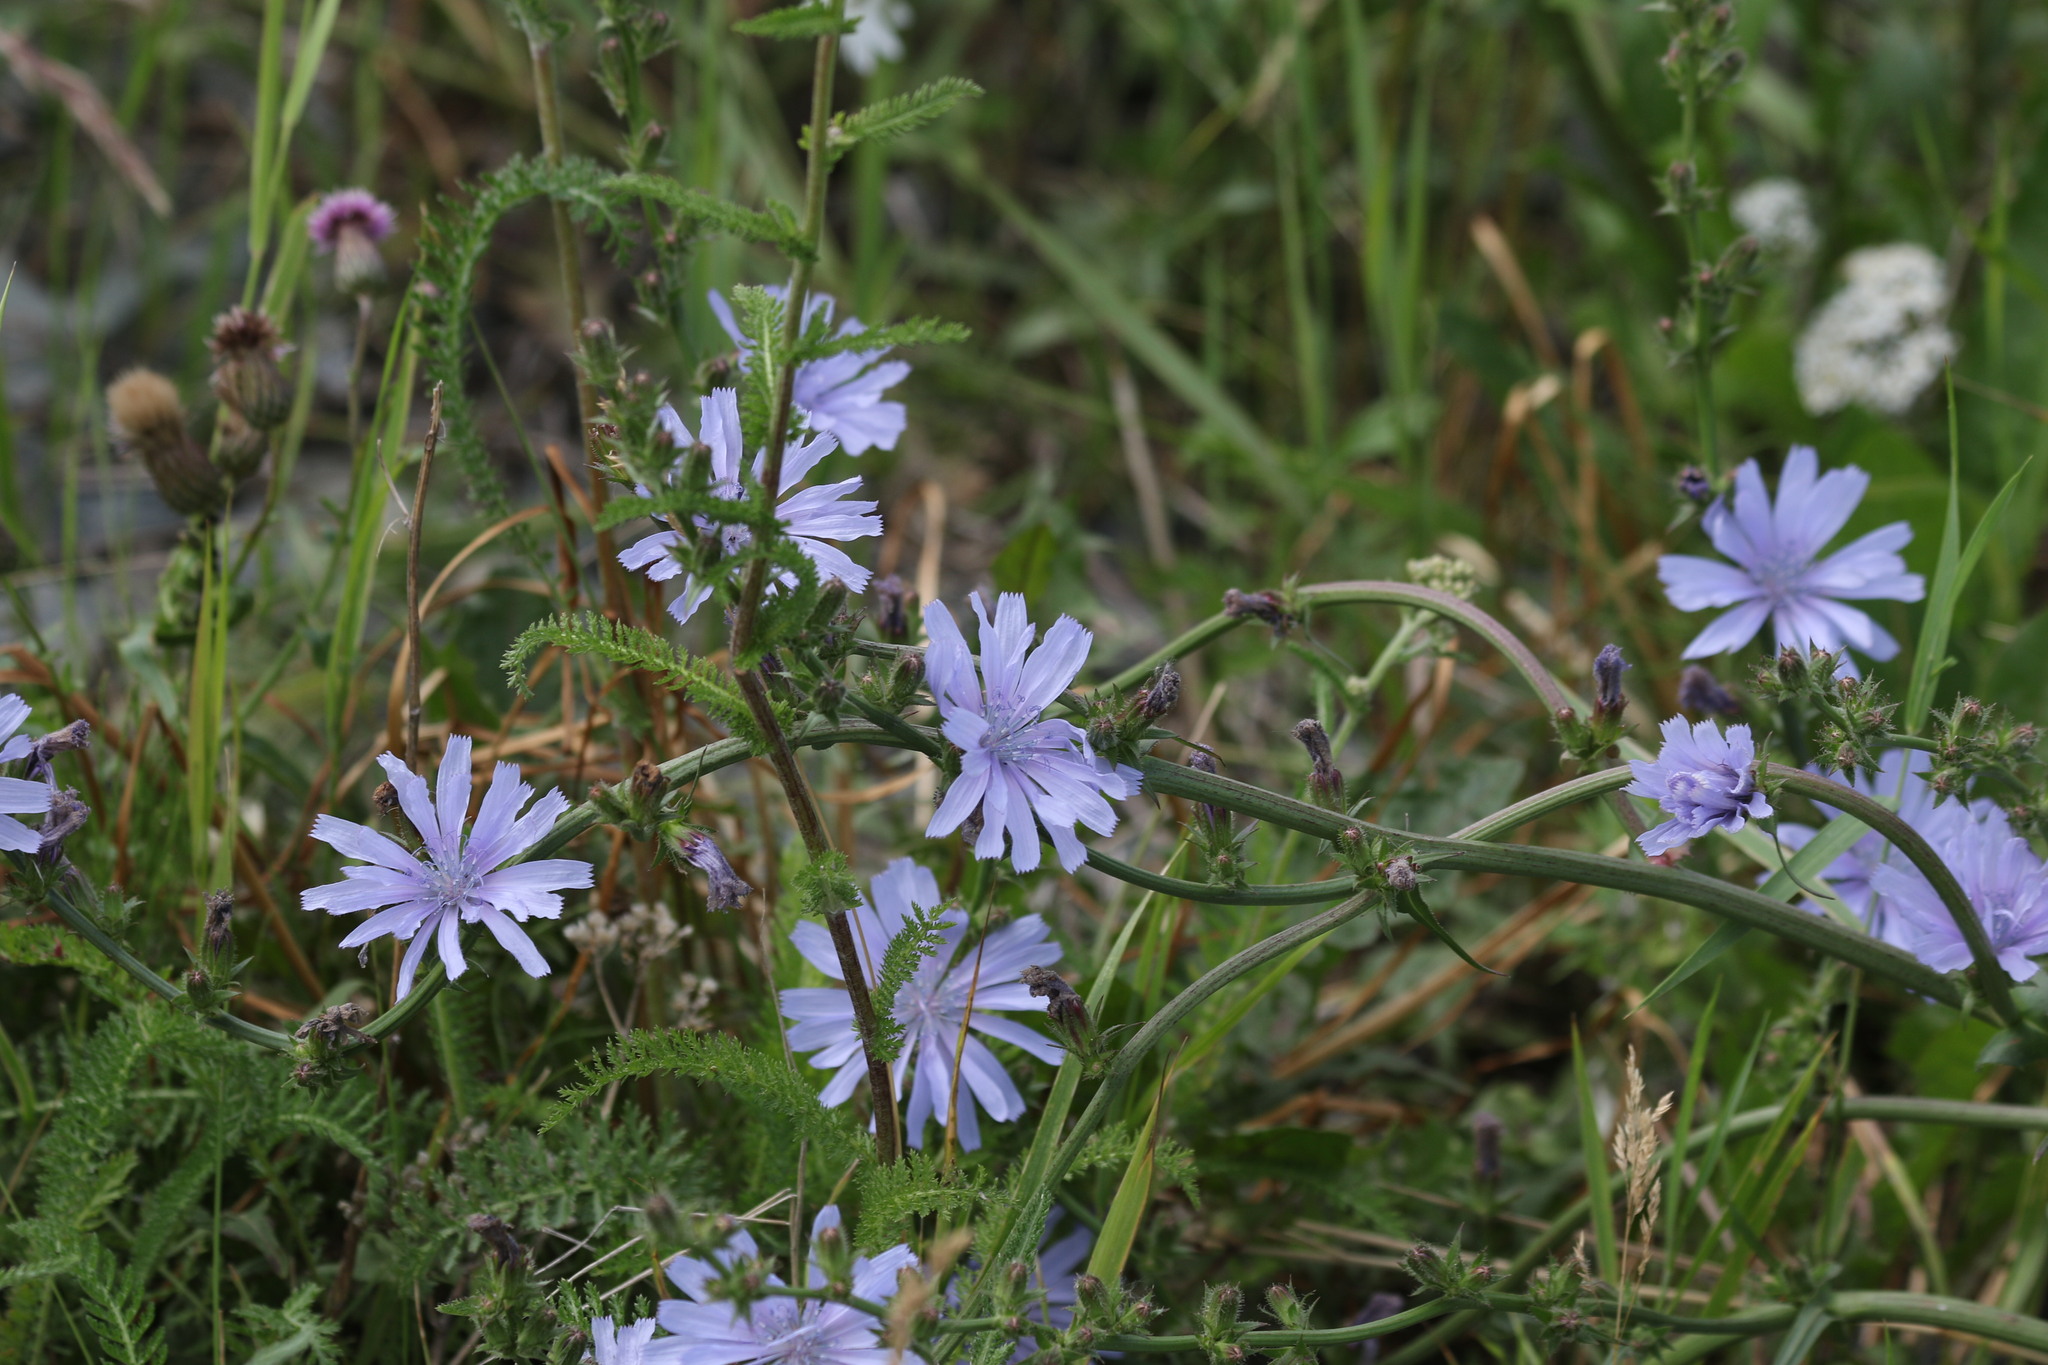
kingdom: Plantae
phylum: Tracheophyta
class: Magnoliopsida
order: Asterales
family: Asteraceae
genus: Cichorium
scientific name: Cichorium intybus
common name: Chicory
